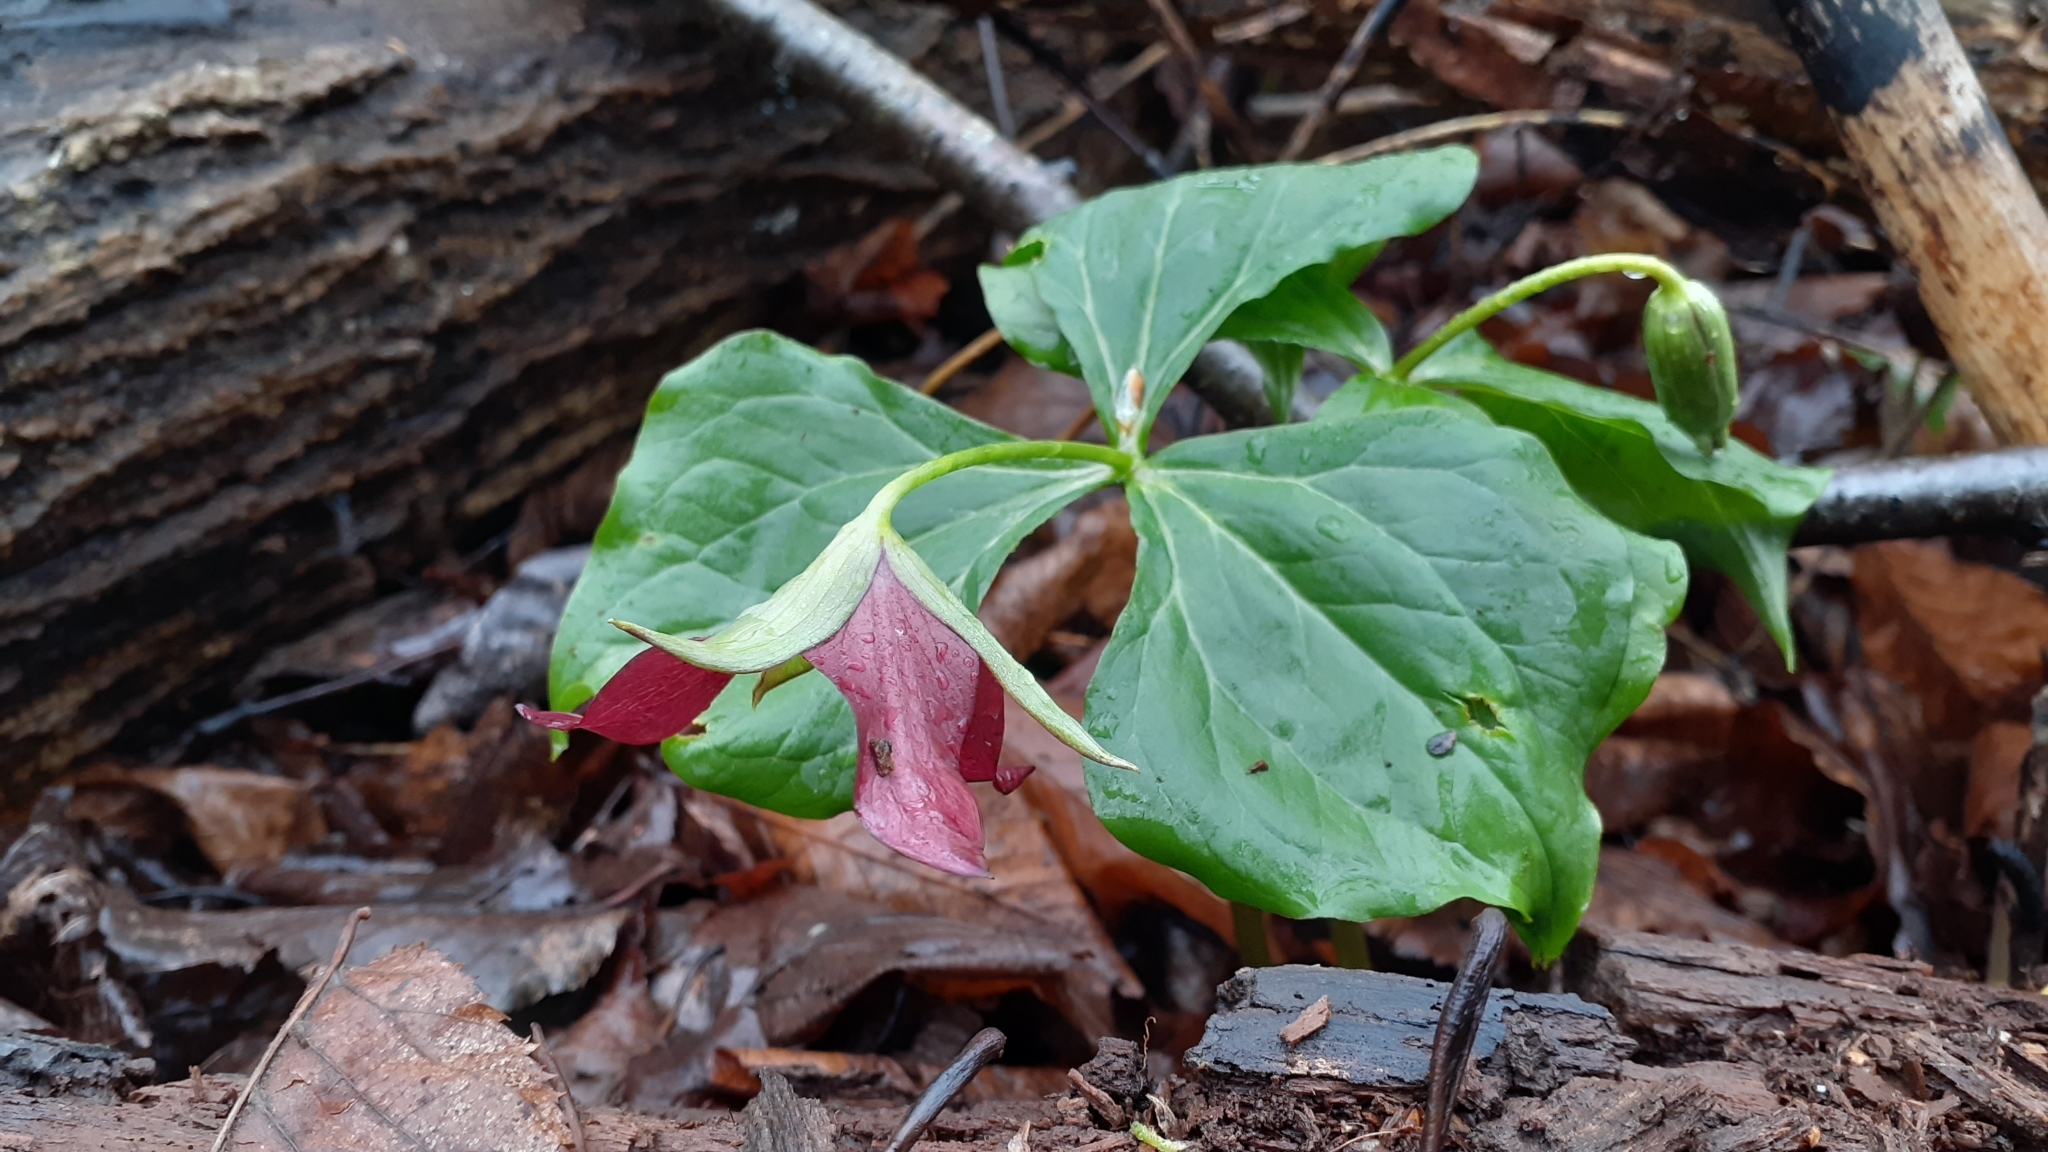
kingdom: Plantae
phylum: Tracheophyta
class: Liliopsida
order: Liliales
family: Melanthiaceae
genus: Trillium
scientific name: Trillium erectum
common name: Purple trillium
